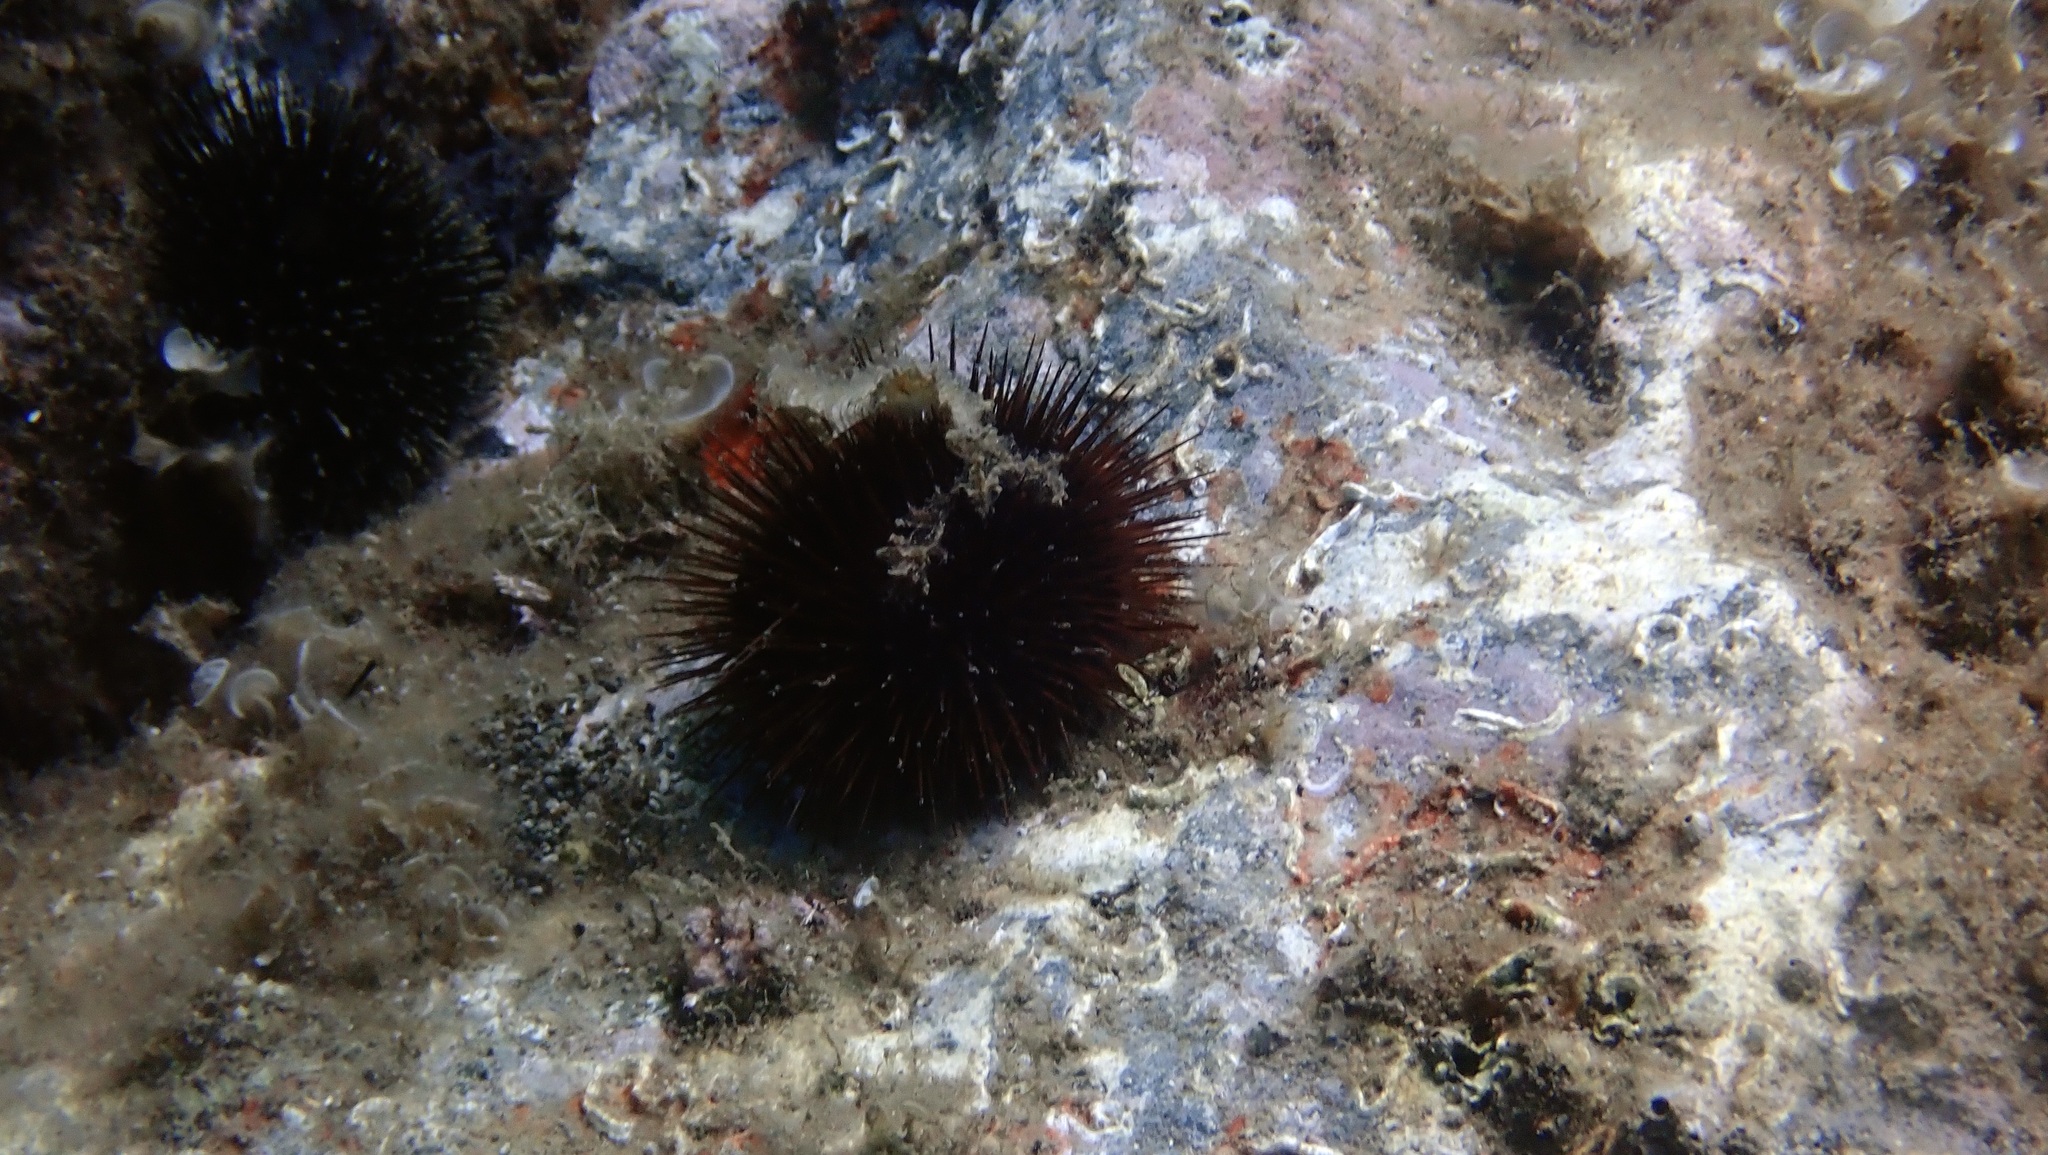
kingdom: Animalia
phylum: Echinodermata
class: Echinoidea
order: Camarodonta
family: Parechinidae
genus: Paracentrotus
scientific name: Paracentrotus lividus
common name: Purple sea urchin
